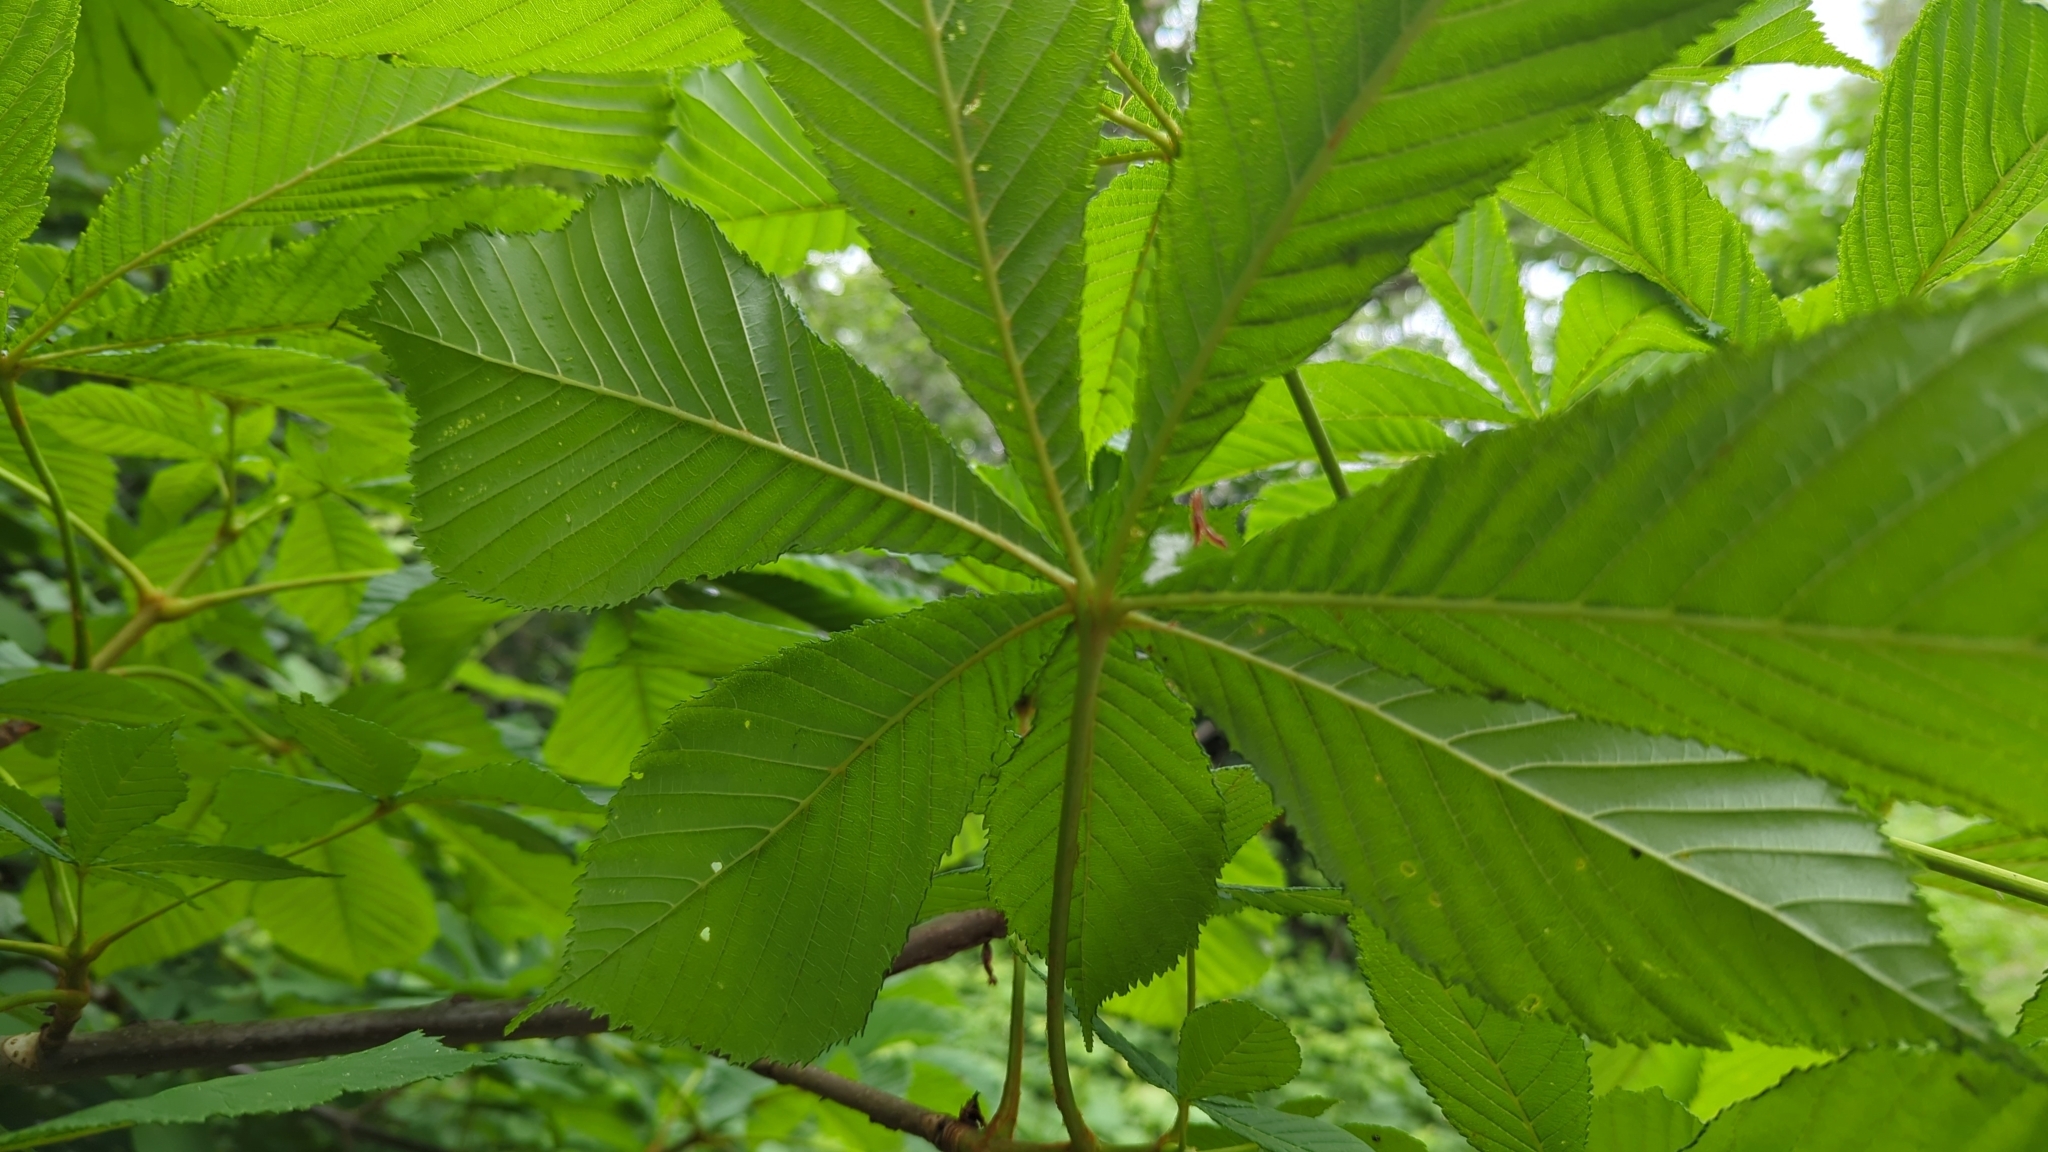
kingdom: Plantae
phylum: Tracheophyta
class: Magnoliopsida
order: Sapindales
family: Sapindaceae
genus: Aesculus
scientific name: Aesculus hippocastanum
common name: Horse-chestnut
